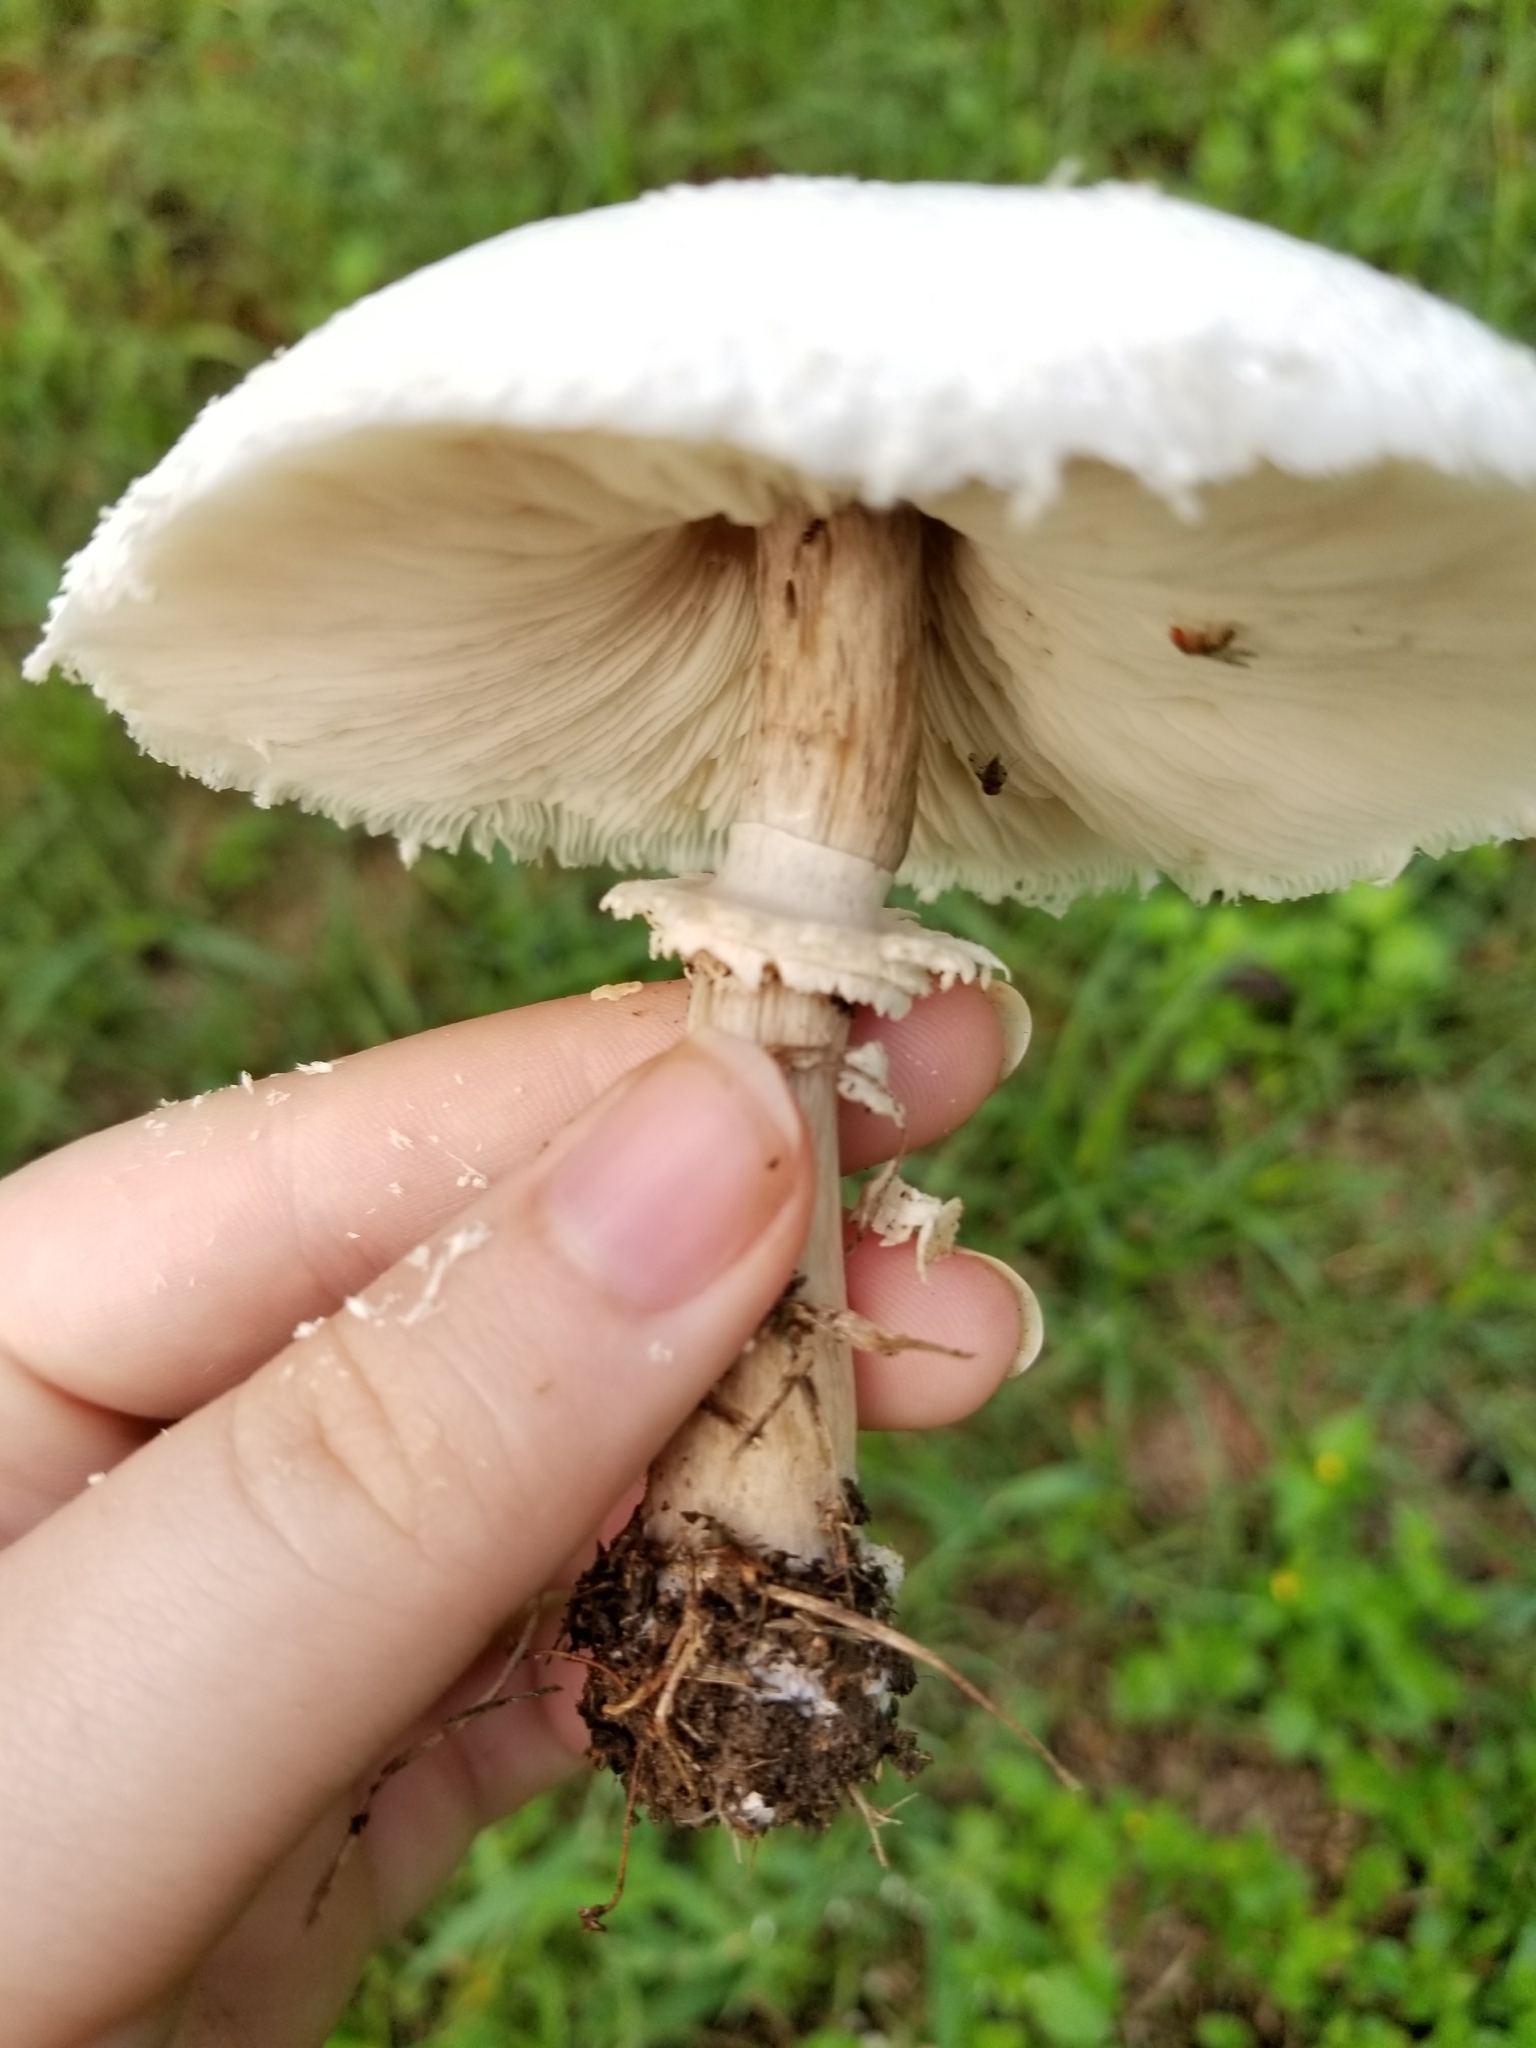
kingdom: Fungi
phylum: Basidiomycota
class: Agaricomycetes
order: Agaricales
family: Agaricaceae
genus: Chlorophyllum
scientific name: Chlorophyllum molybdites
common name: False parasol
